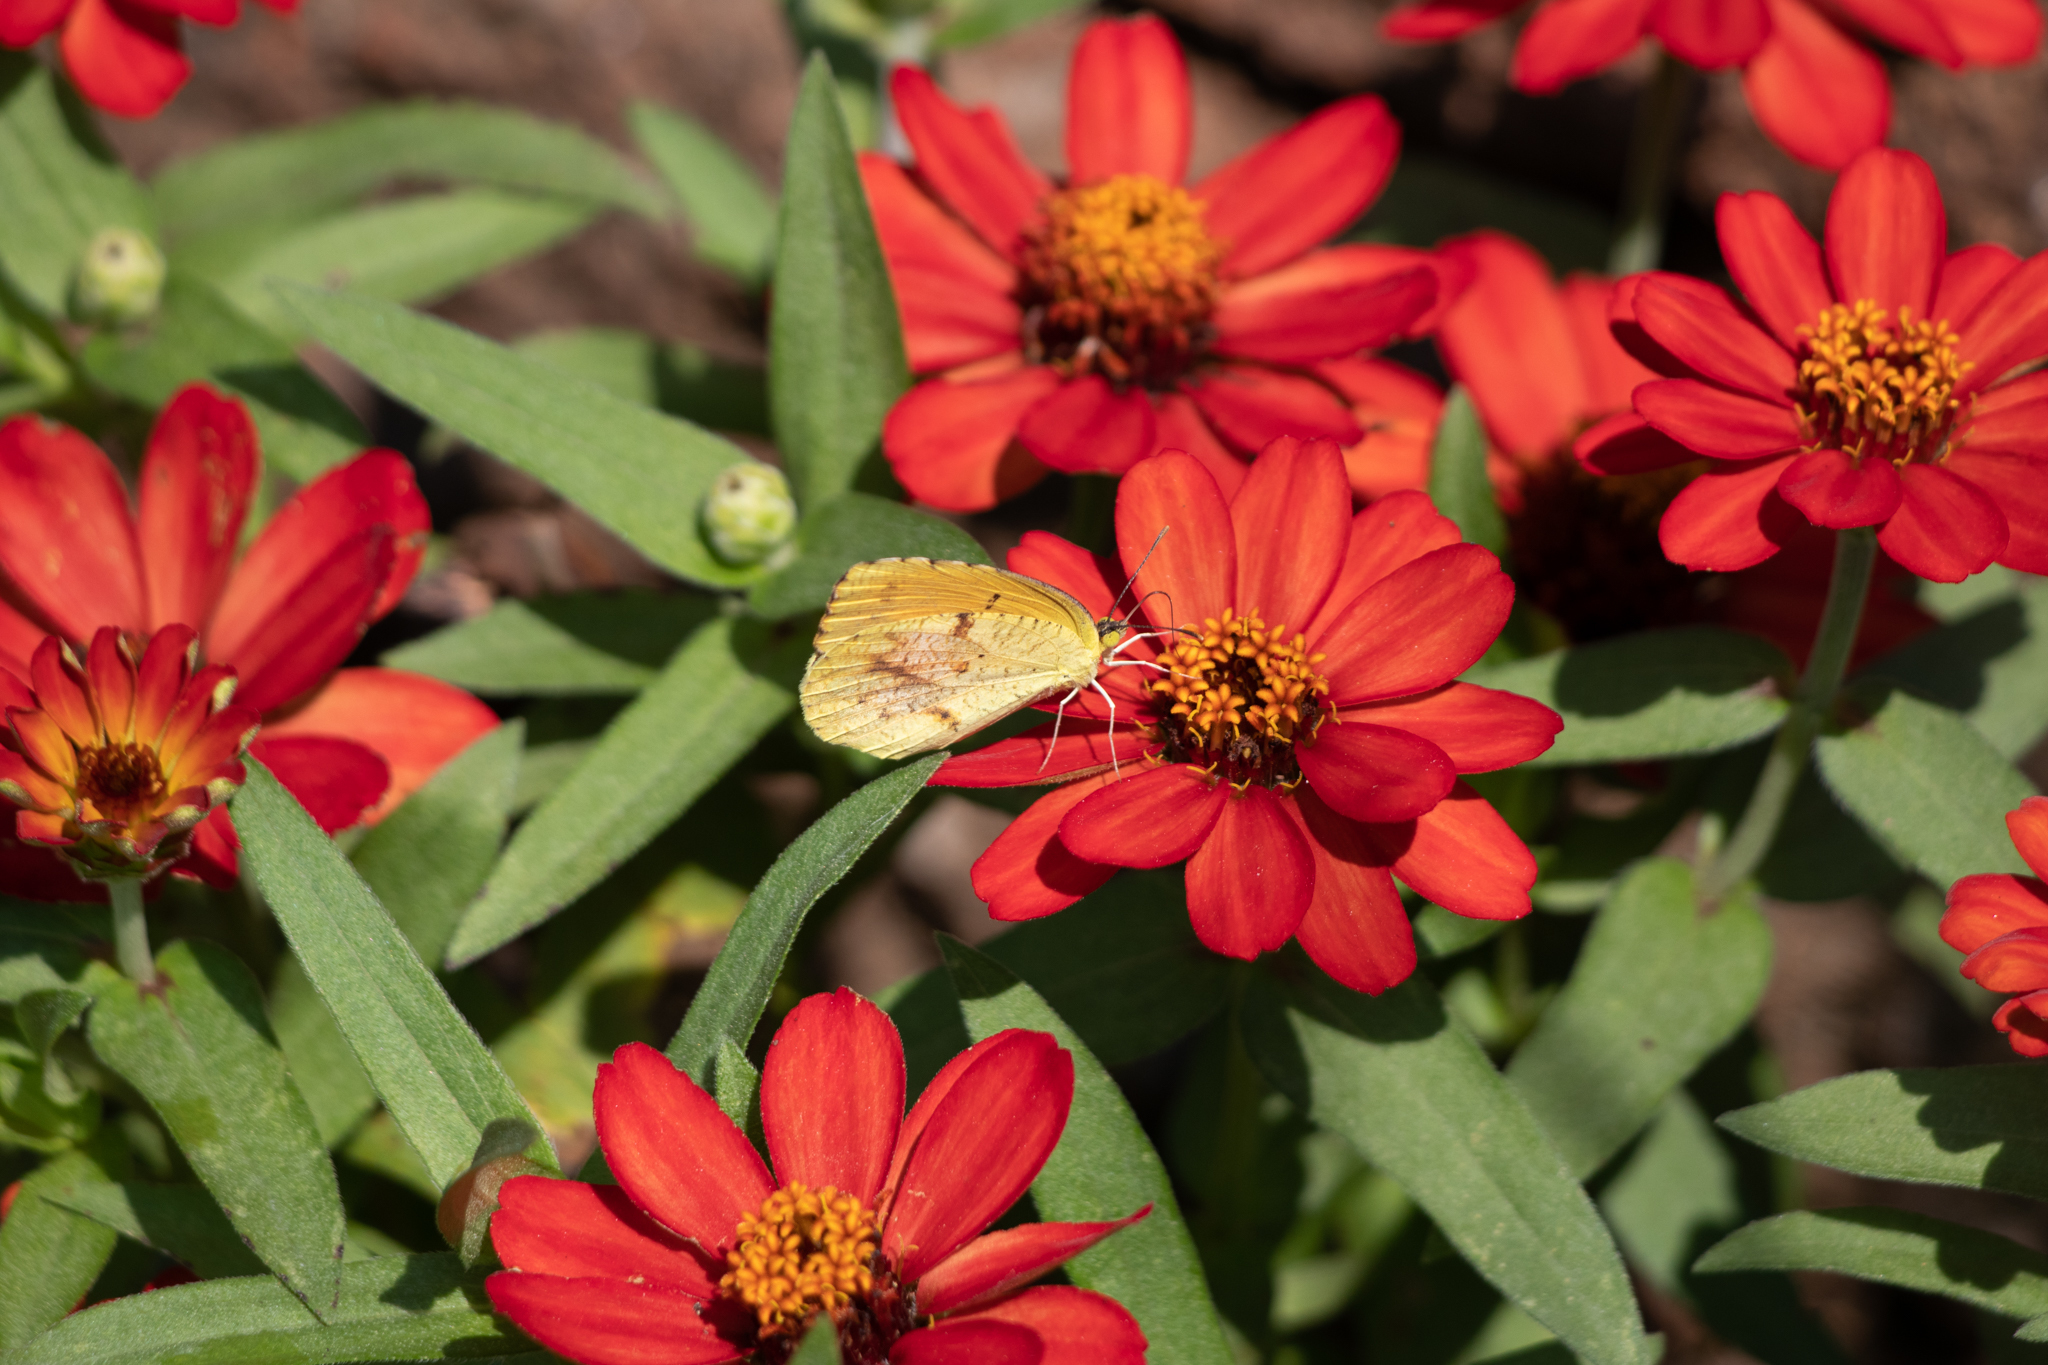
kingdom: Animalia
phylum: Arthropoda
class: Insecta
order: Lepidoptera
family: Pieridae
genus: Abaeis
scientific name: Abaeis nicippe
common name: Sleepy orange
